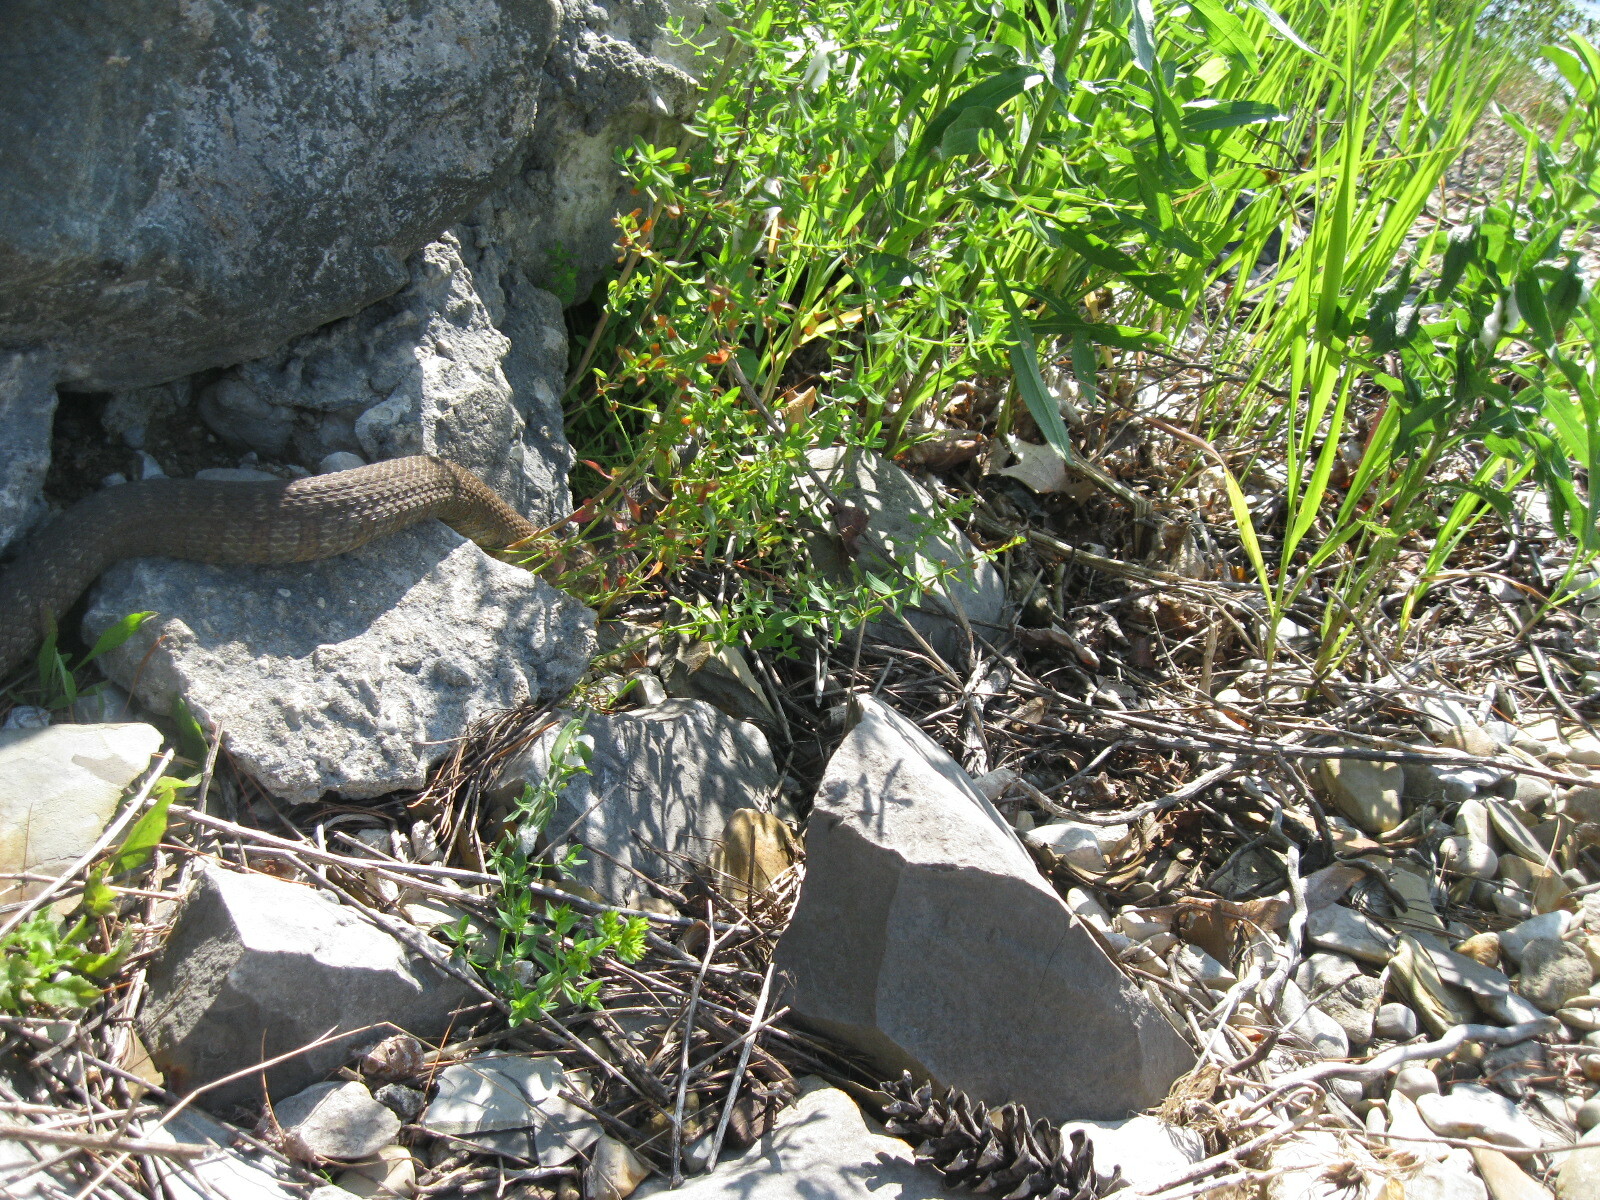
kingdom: Animalia
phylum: Chordata
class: Squamata
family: Colubridae
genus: Nerodia
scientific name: Nerodia sipedon
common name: Northern water snake
